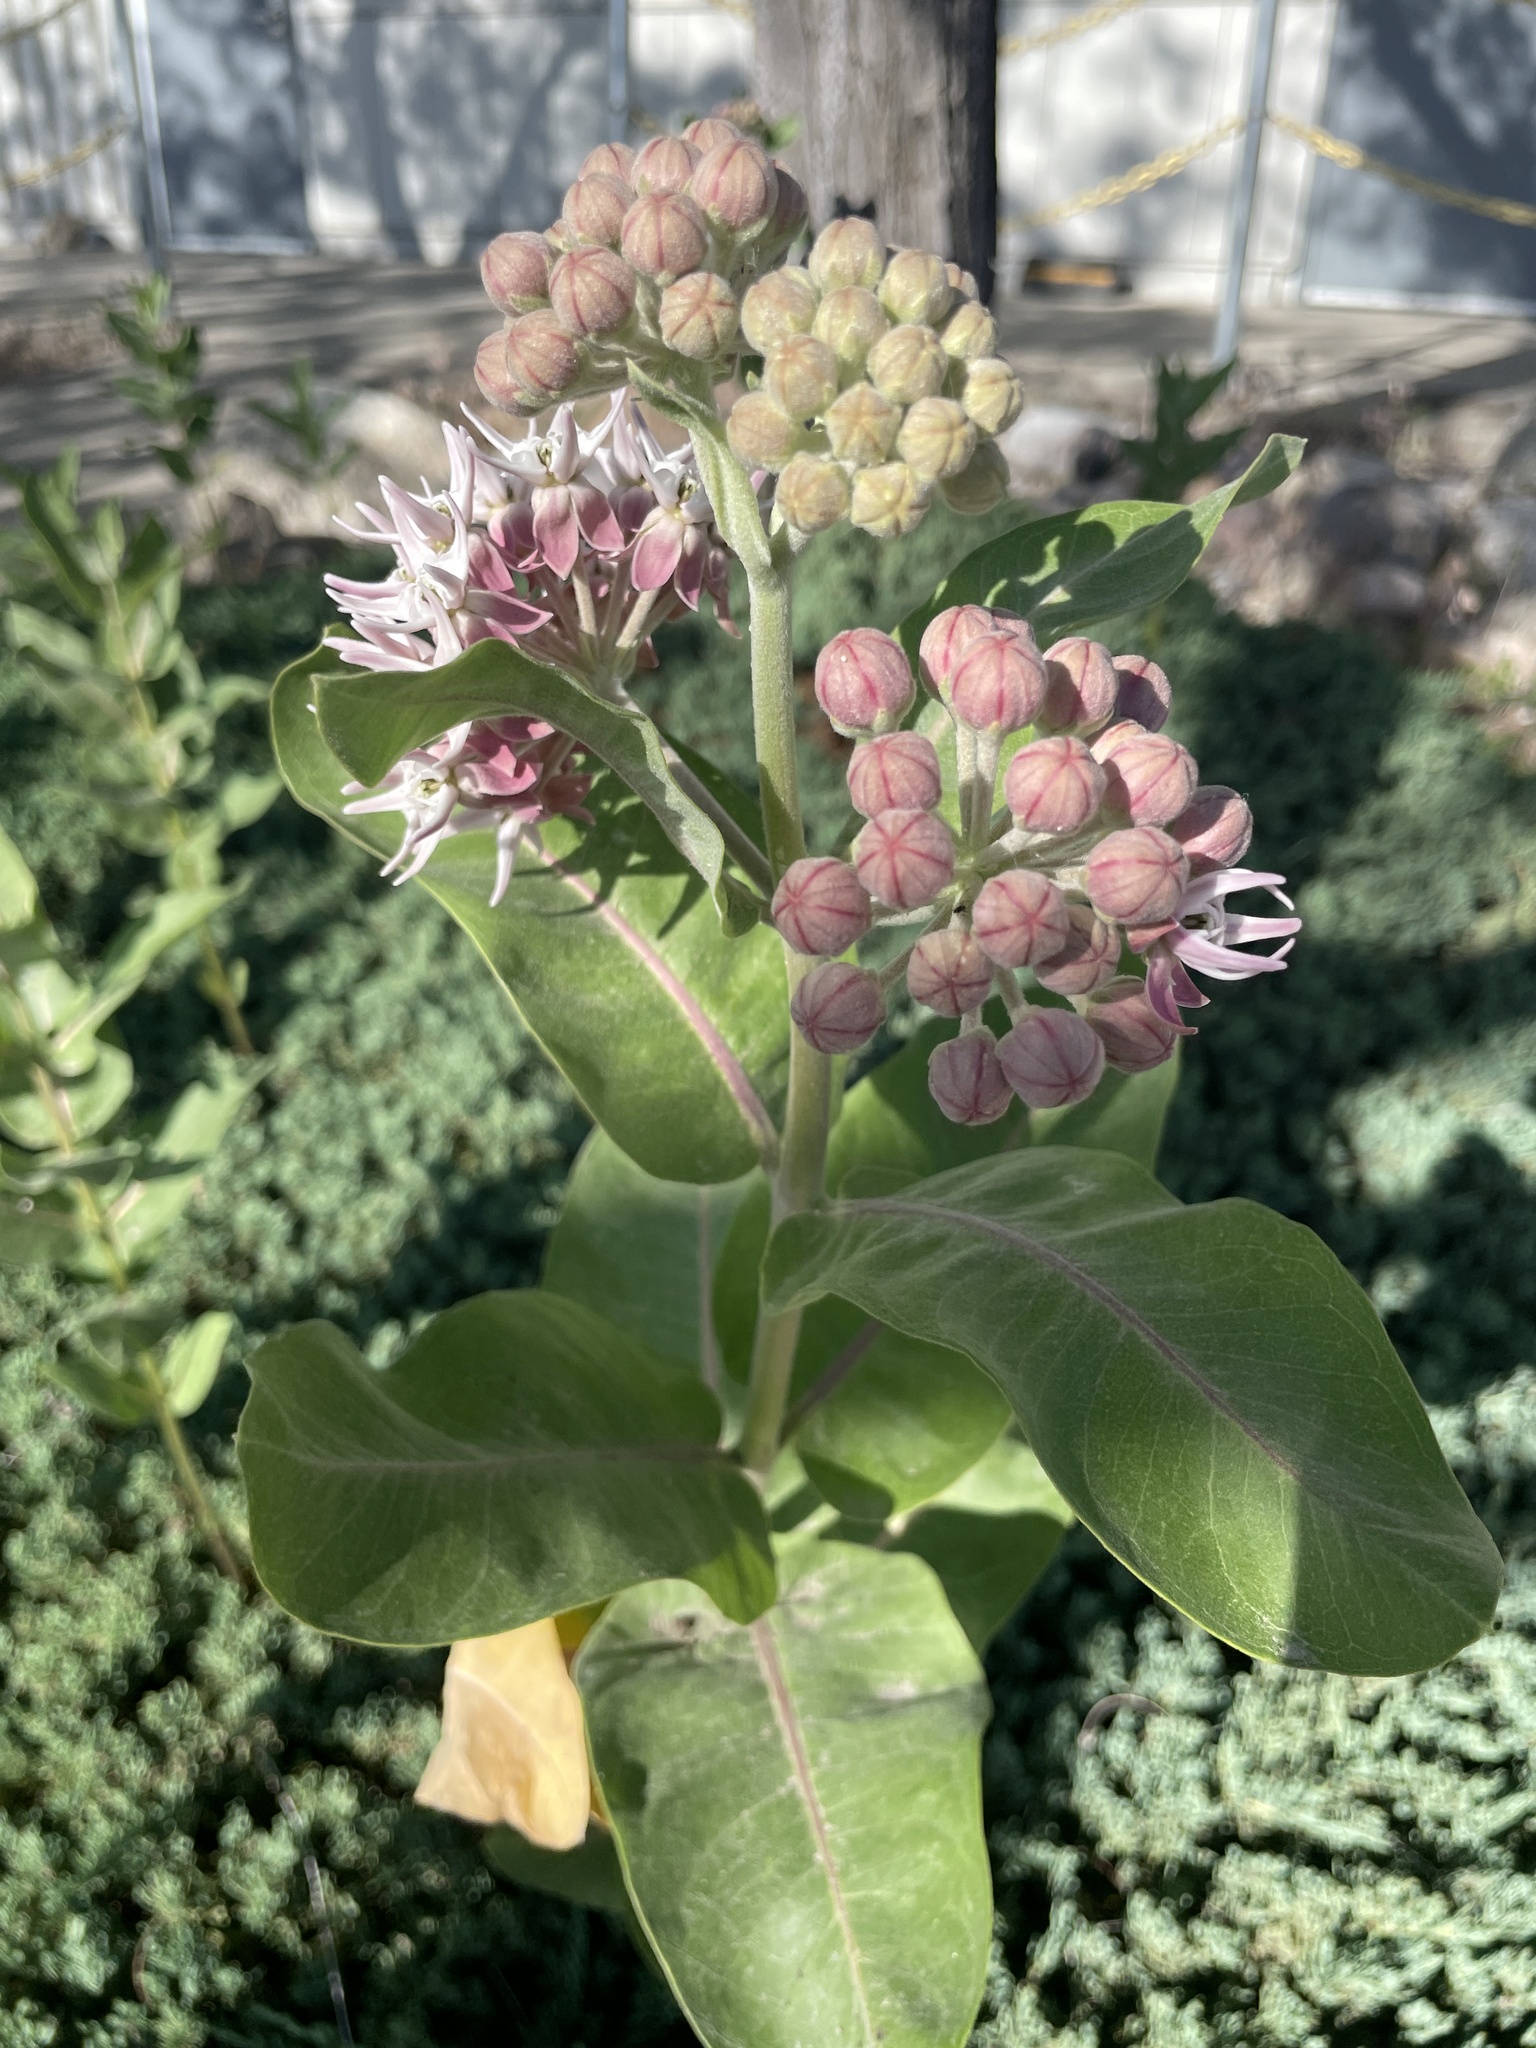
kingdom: Plantae
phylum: Tracheophyta
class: Magnoliopsida
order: Gentianales
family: Apocynaceae
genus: Asclepias
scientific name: Asclepias speciosa
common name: Showy milkweed
